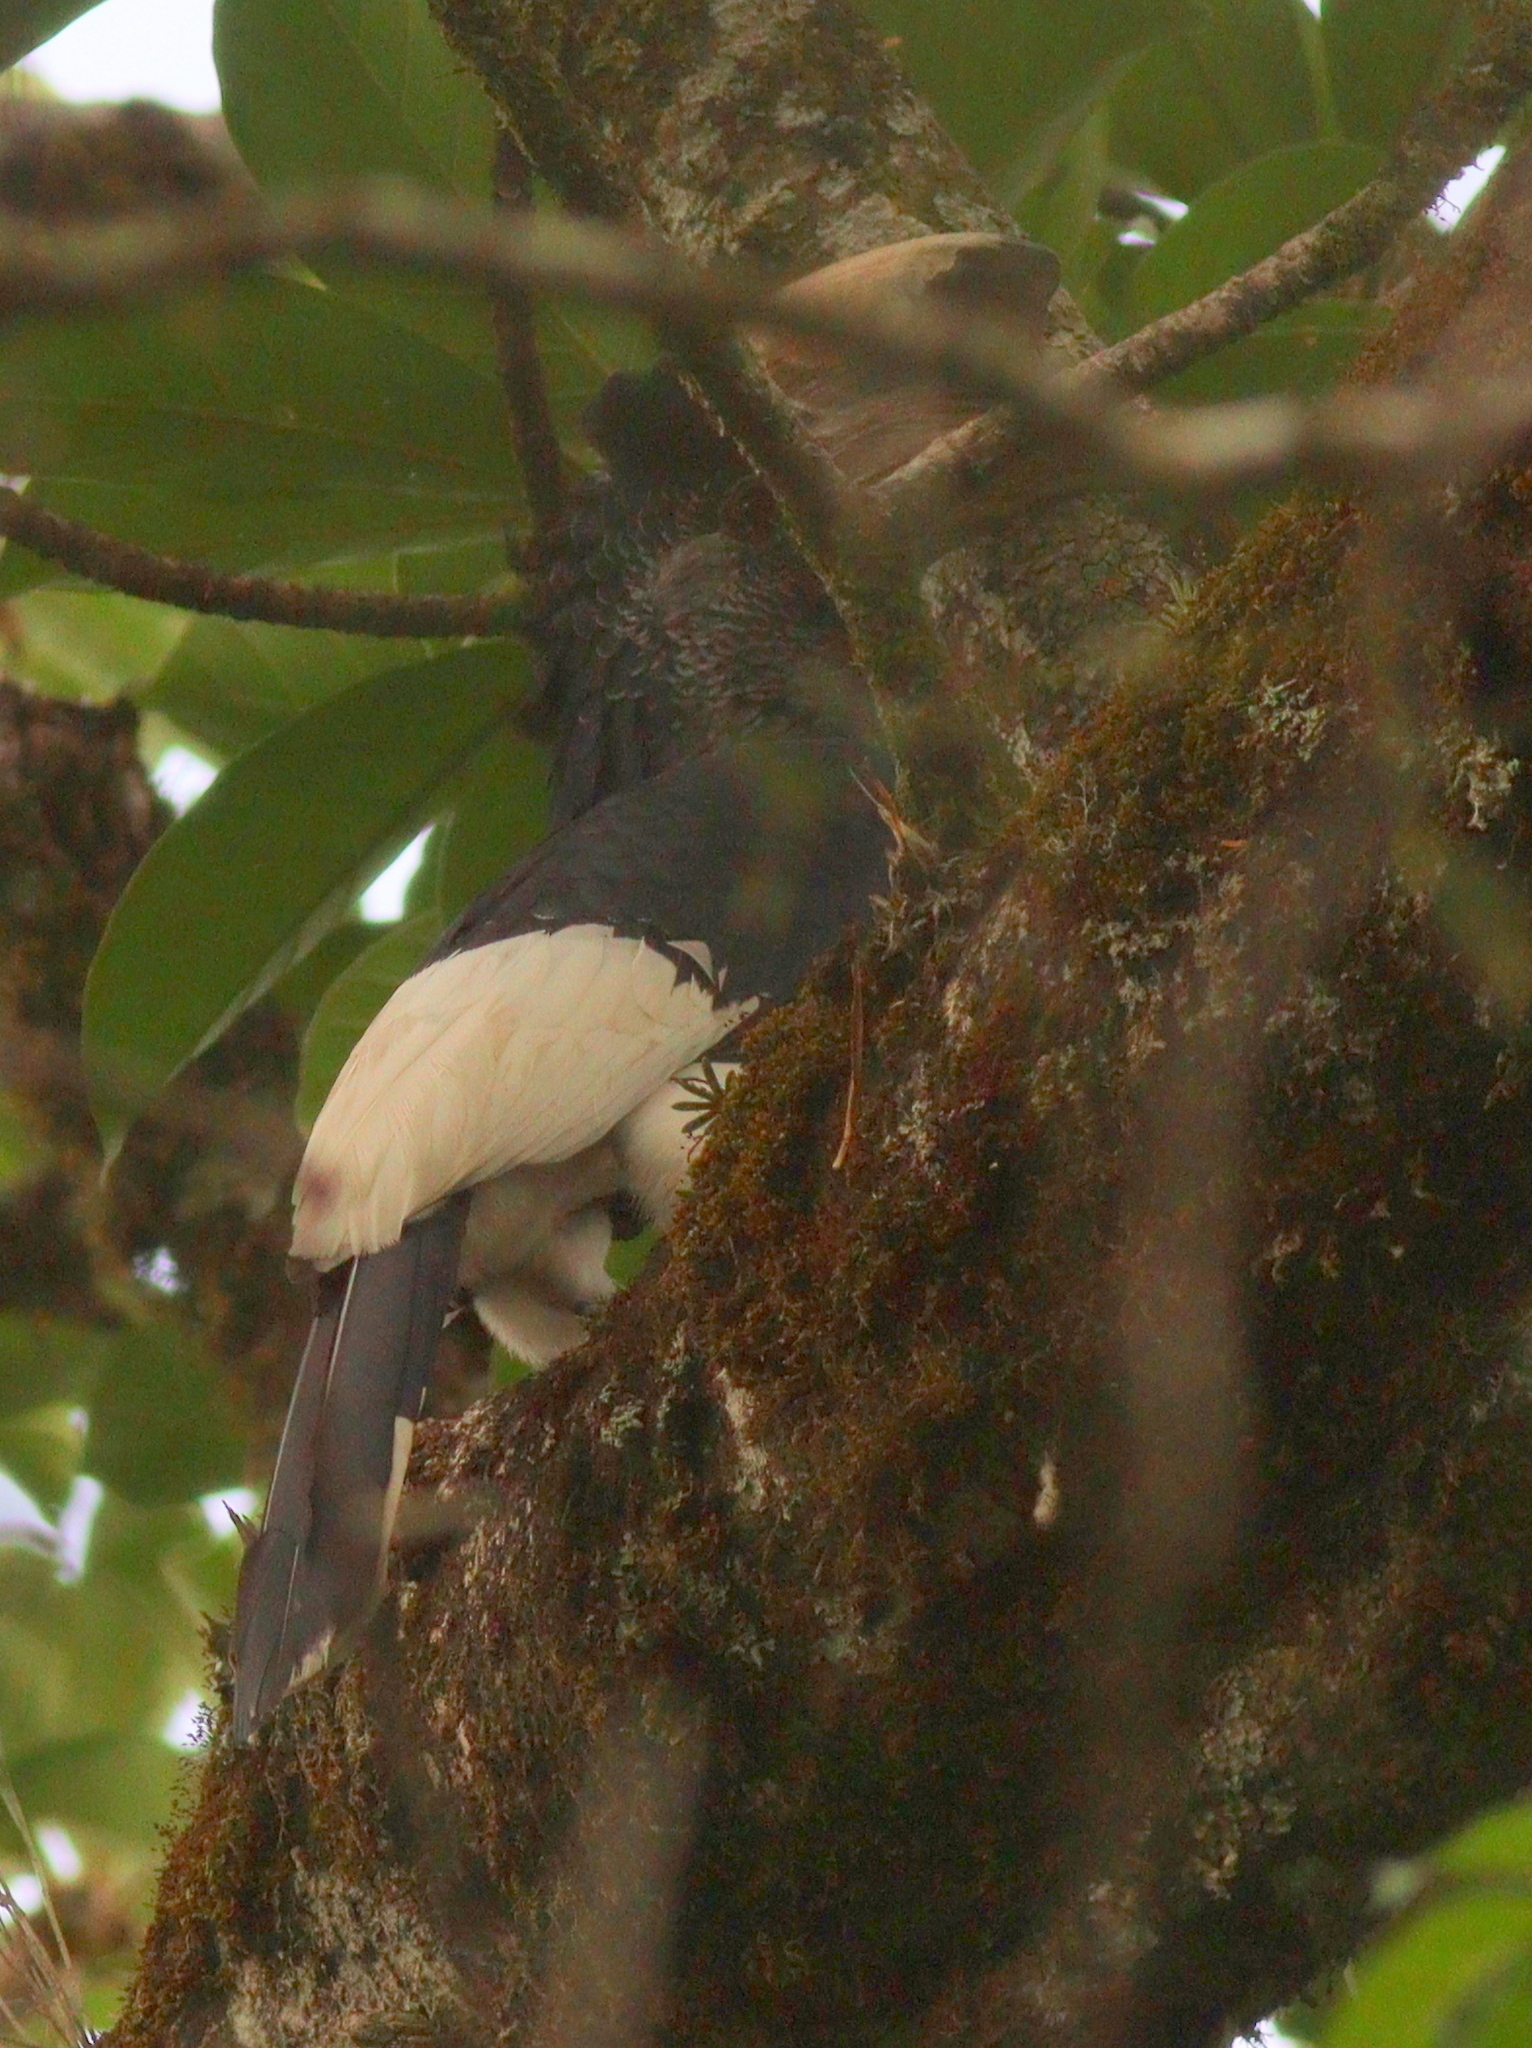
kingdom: Animalia
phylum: Chordata
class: Aves
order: Bucerotiformes
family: Bucerotidae
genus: Bycanistes
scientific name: Bycanistes subcylindricus
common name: Black-and-white-casqued hornbill
